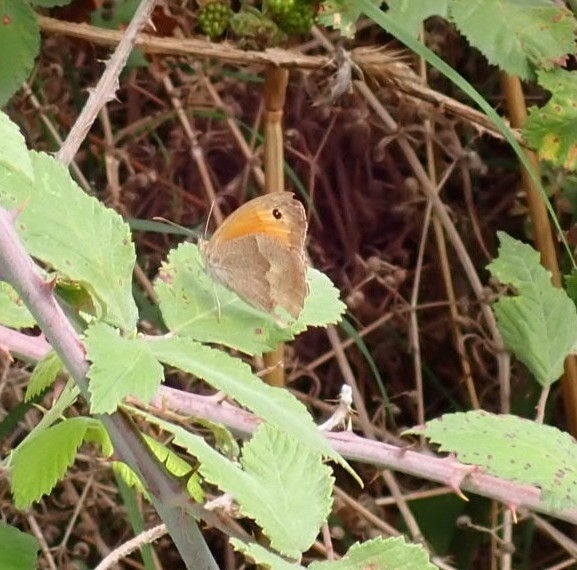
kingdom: Animalia
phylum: Arthropoda
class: Insecta
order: Lepidoptera
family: Nymphalidae
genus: Maniola
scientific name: Maniola jurtina
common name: Meadow brown
